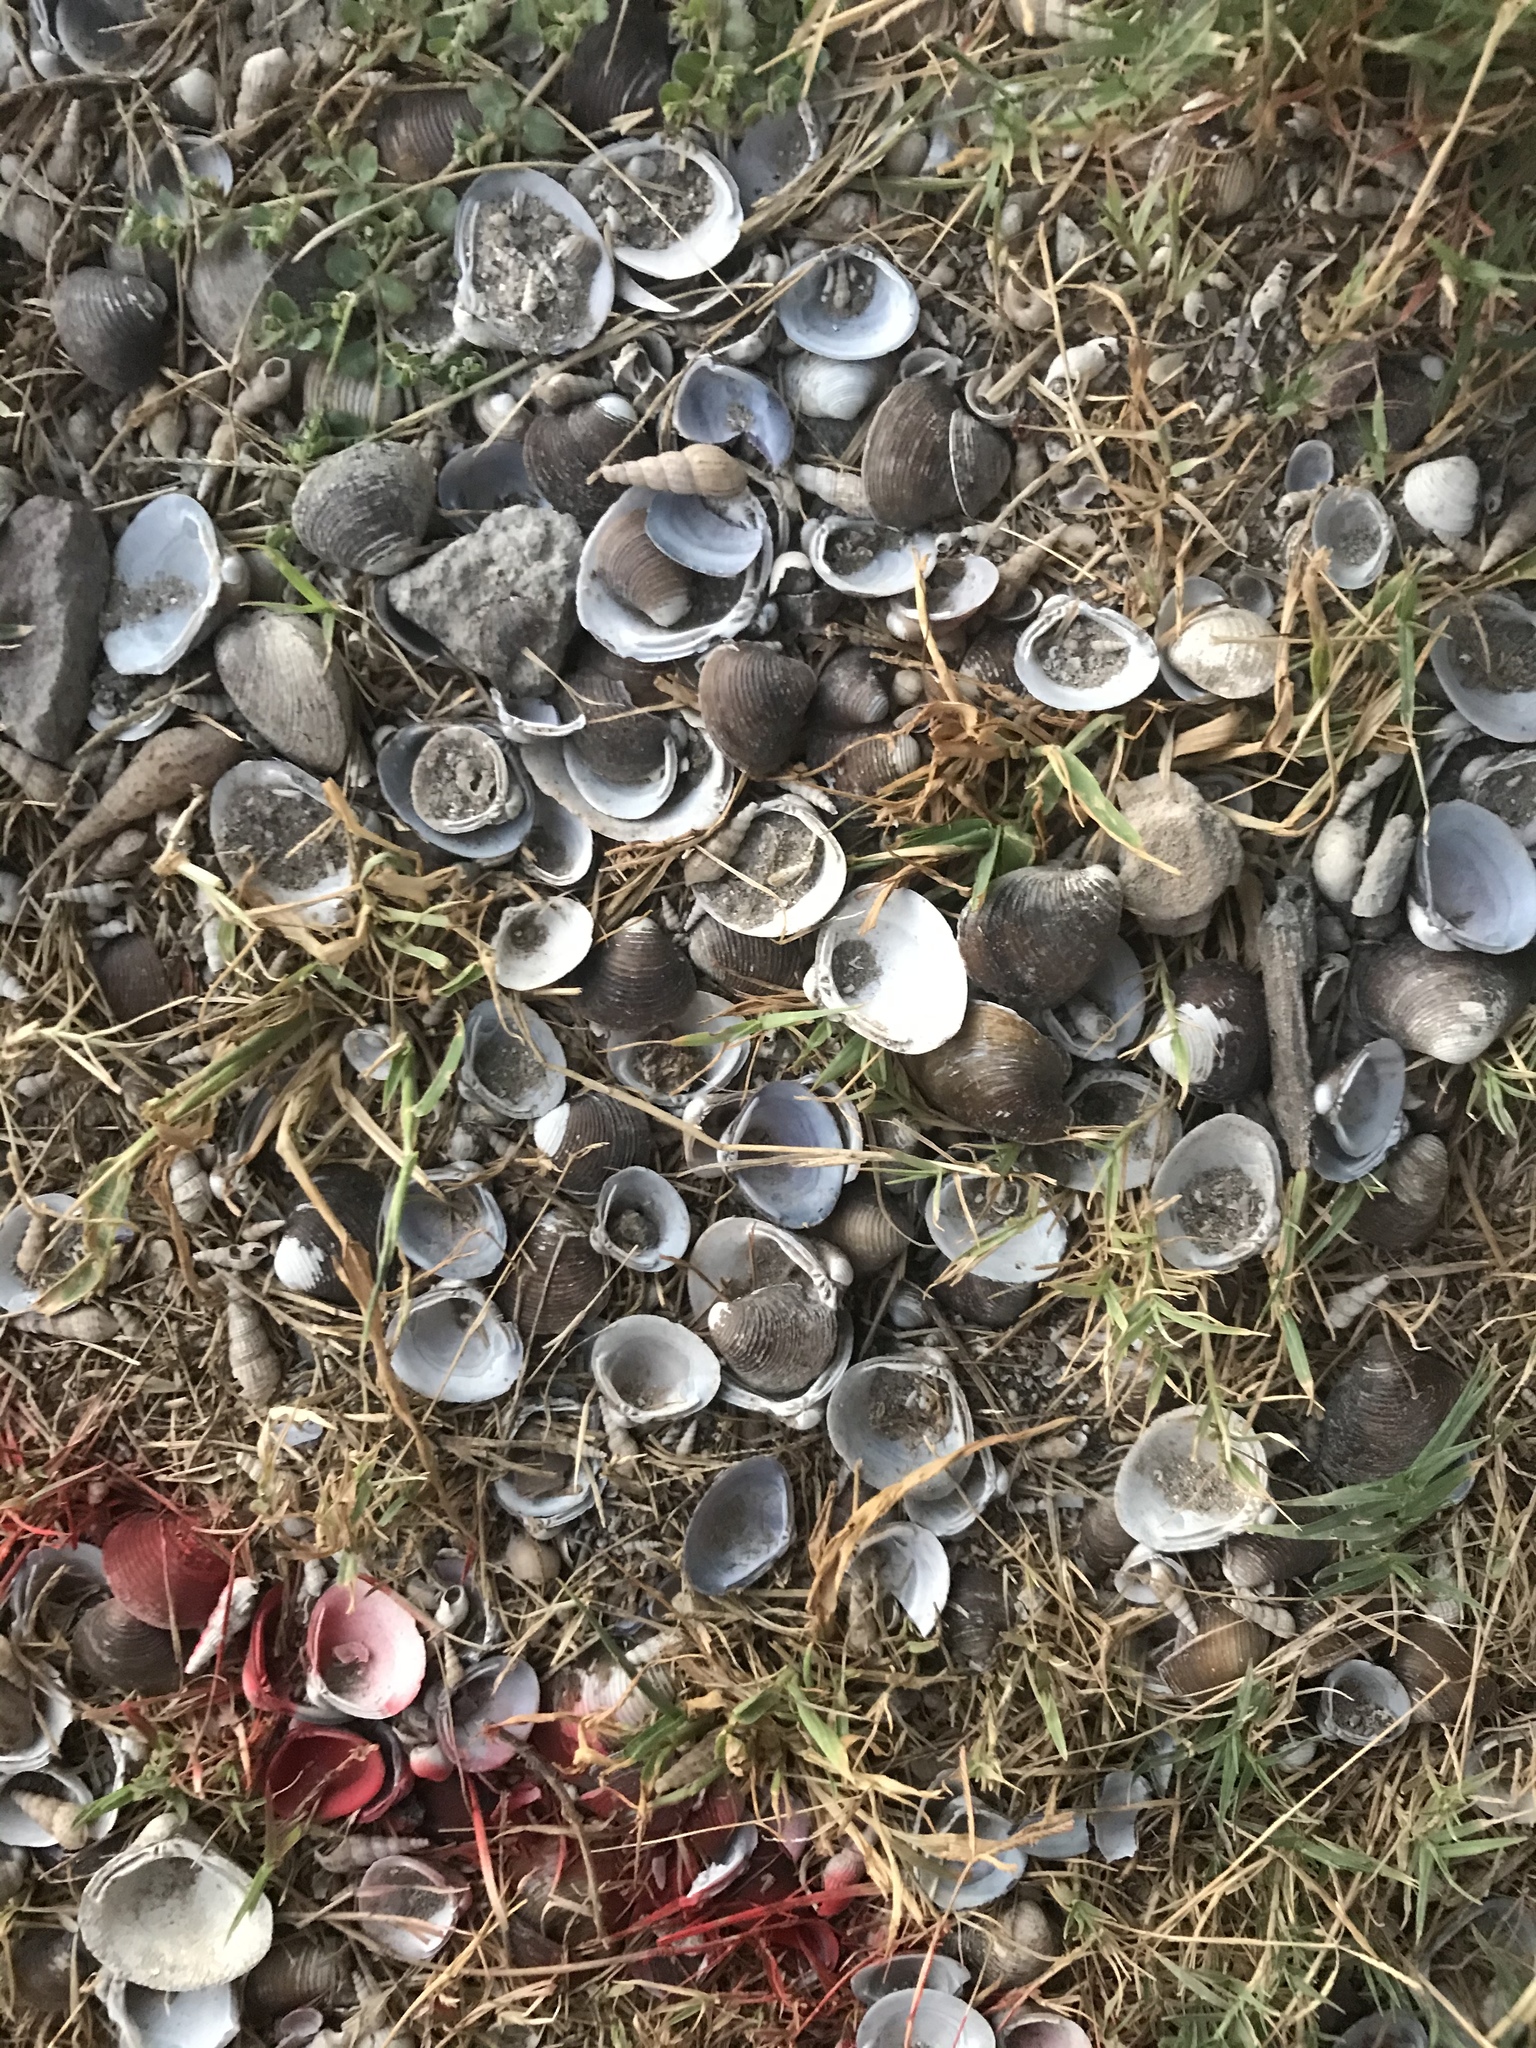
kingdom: Animalia
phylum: Mollusca
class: Bivalvia
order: Venerida
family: Cyrenidae
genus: Corbicula
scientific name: Corbicula fluminea
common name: Asian clam
